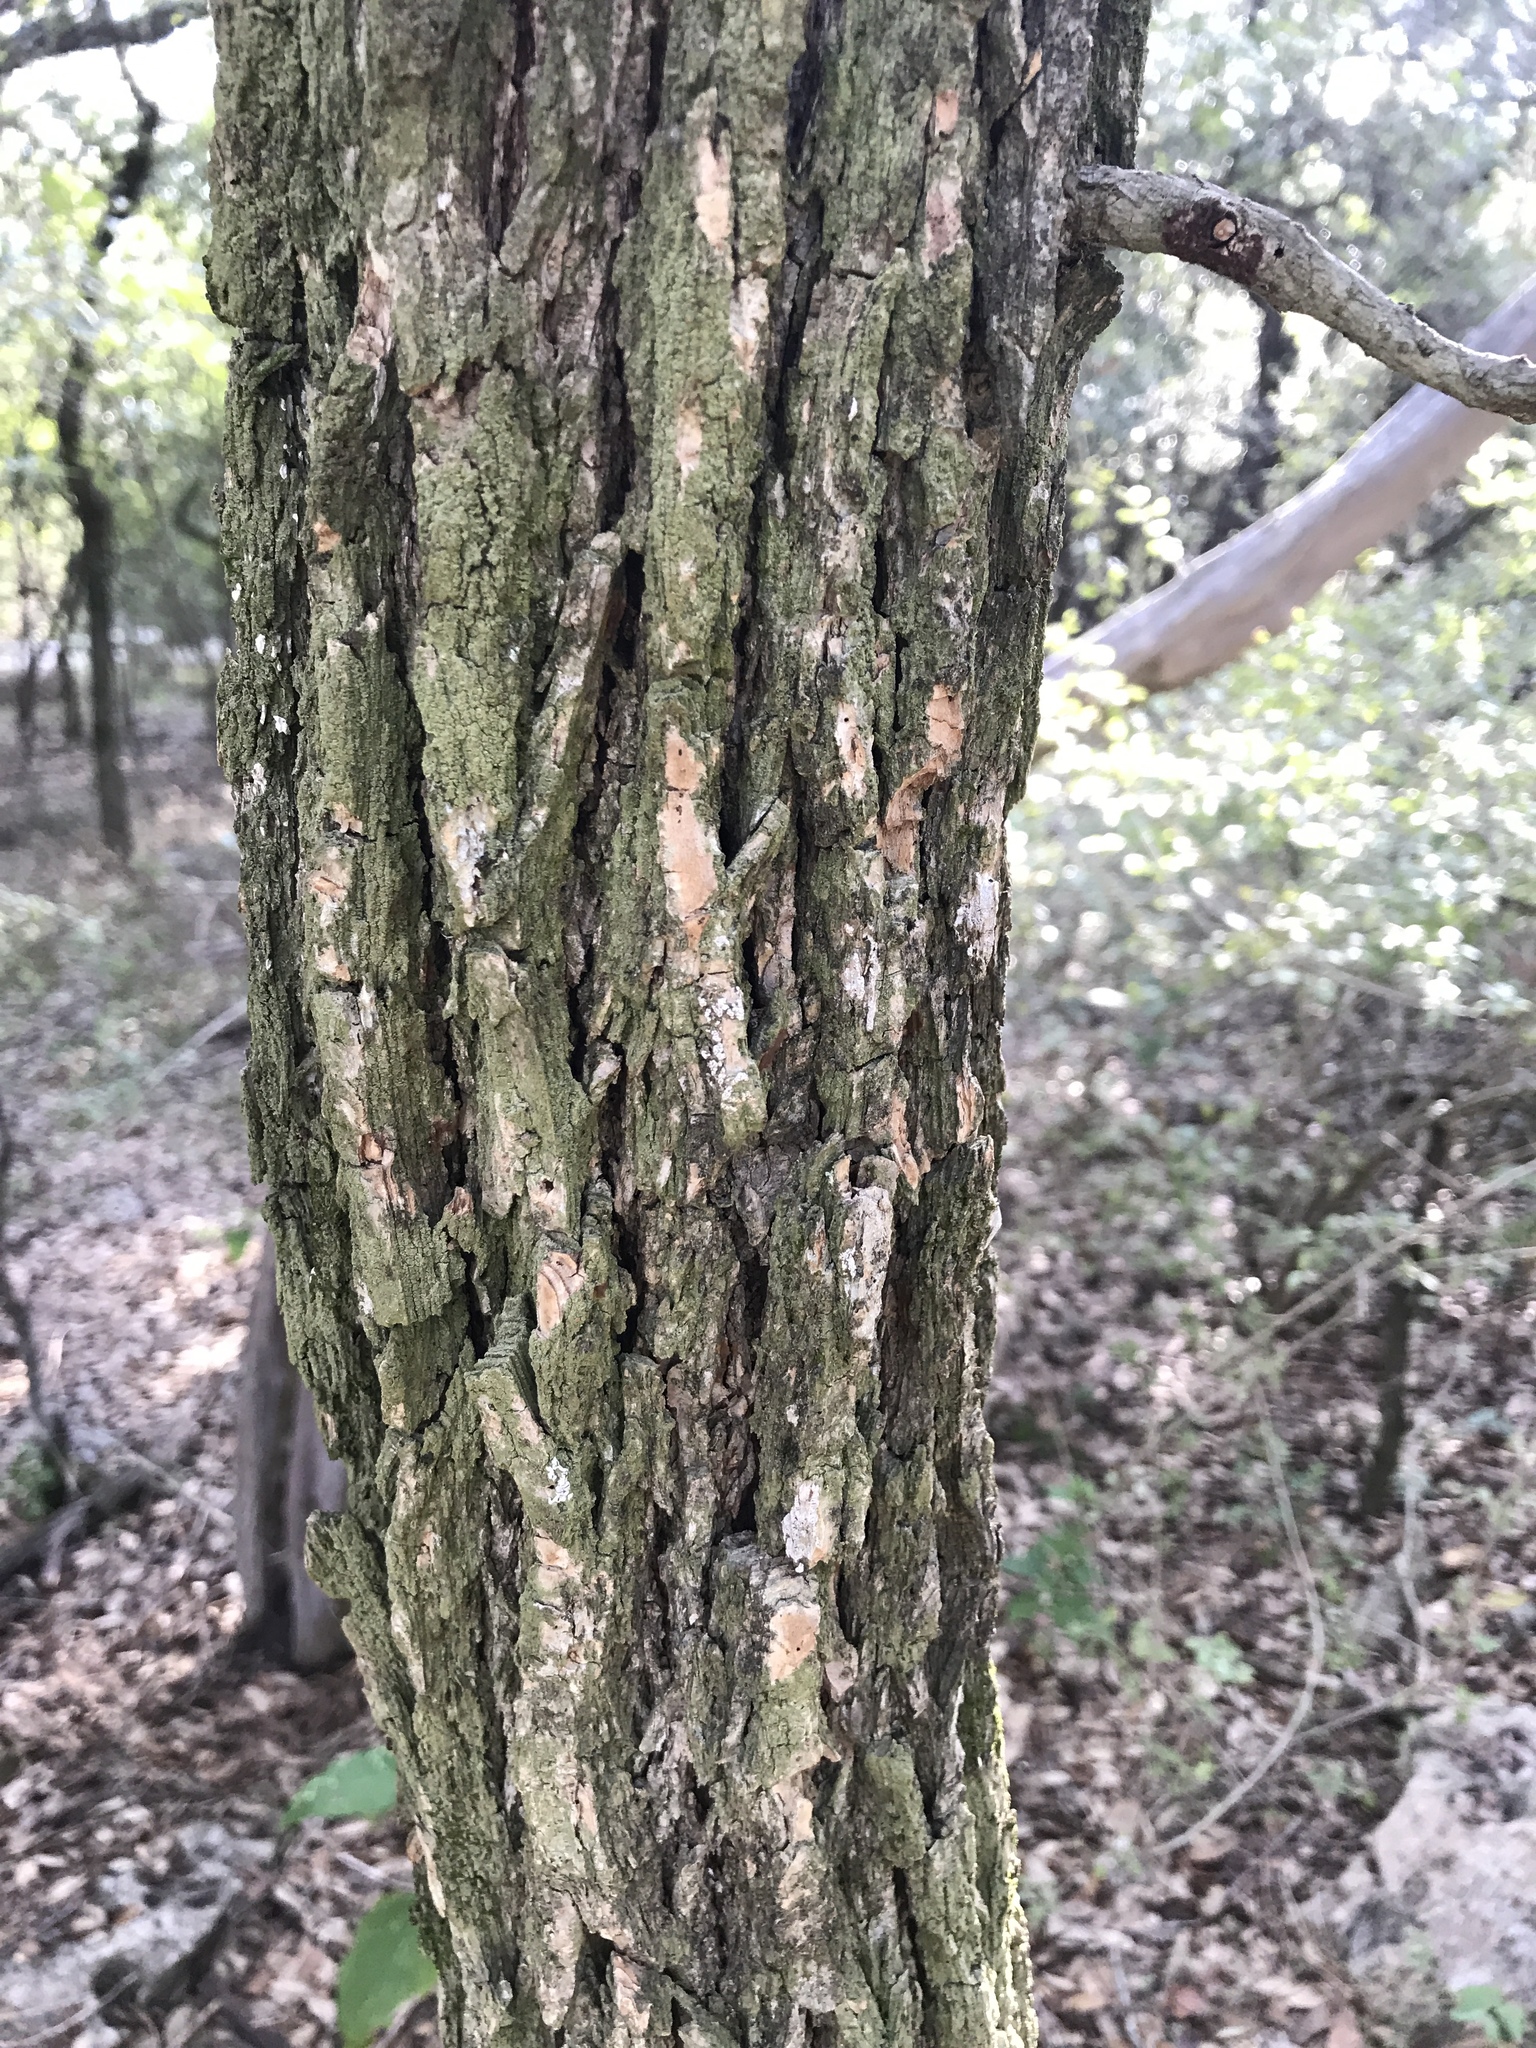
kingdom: Plantae
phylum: Tracheophyta
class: Magnoliopsida
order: Rosales
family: Ulmaceae
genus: Ulmus
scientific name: Ulmus crassifolia
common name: Basket elm
